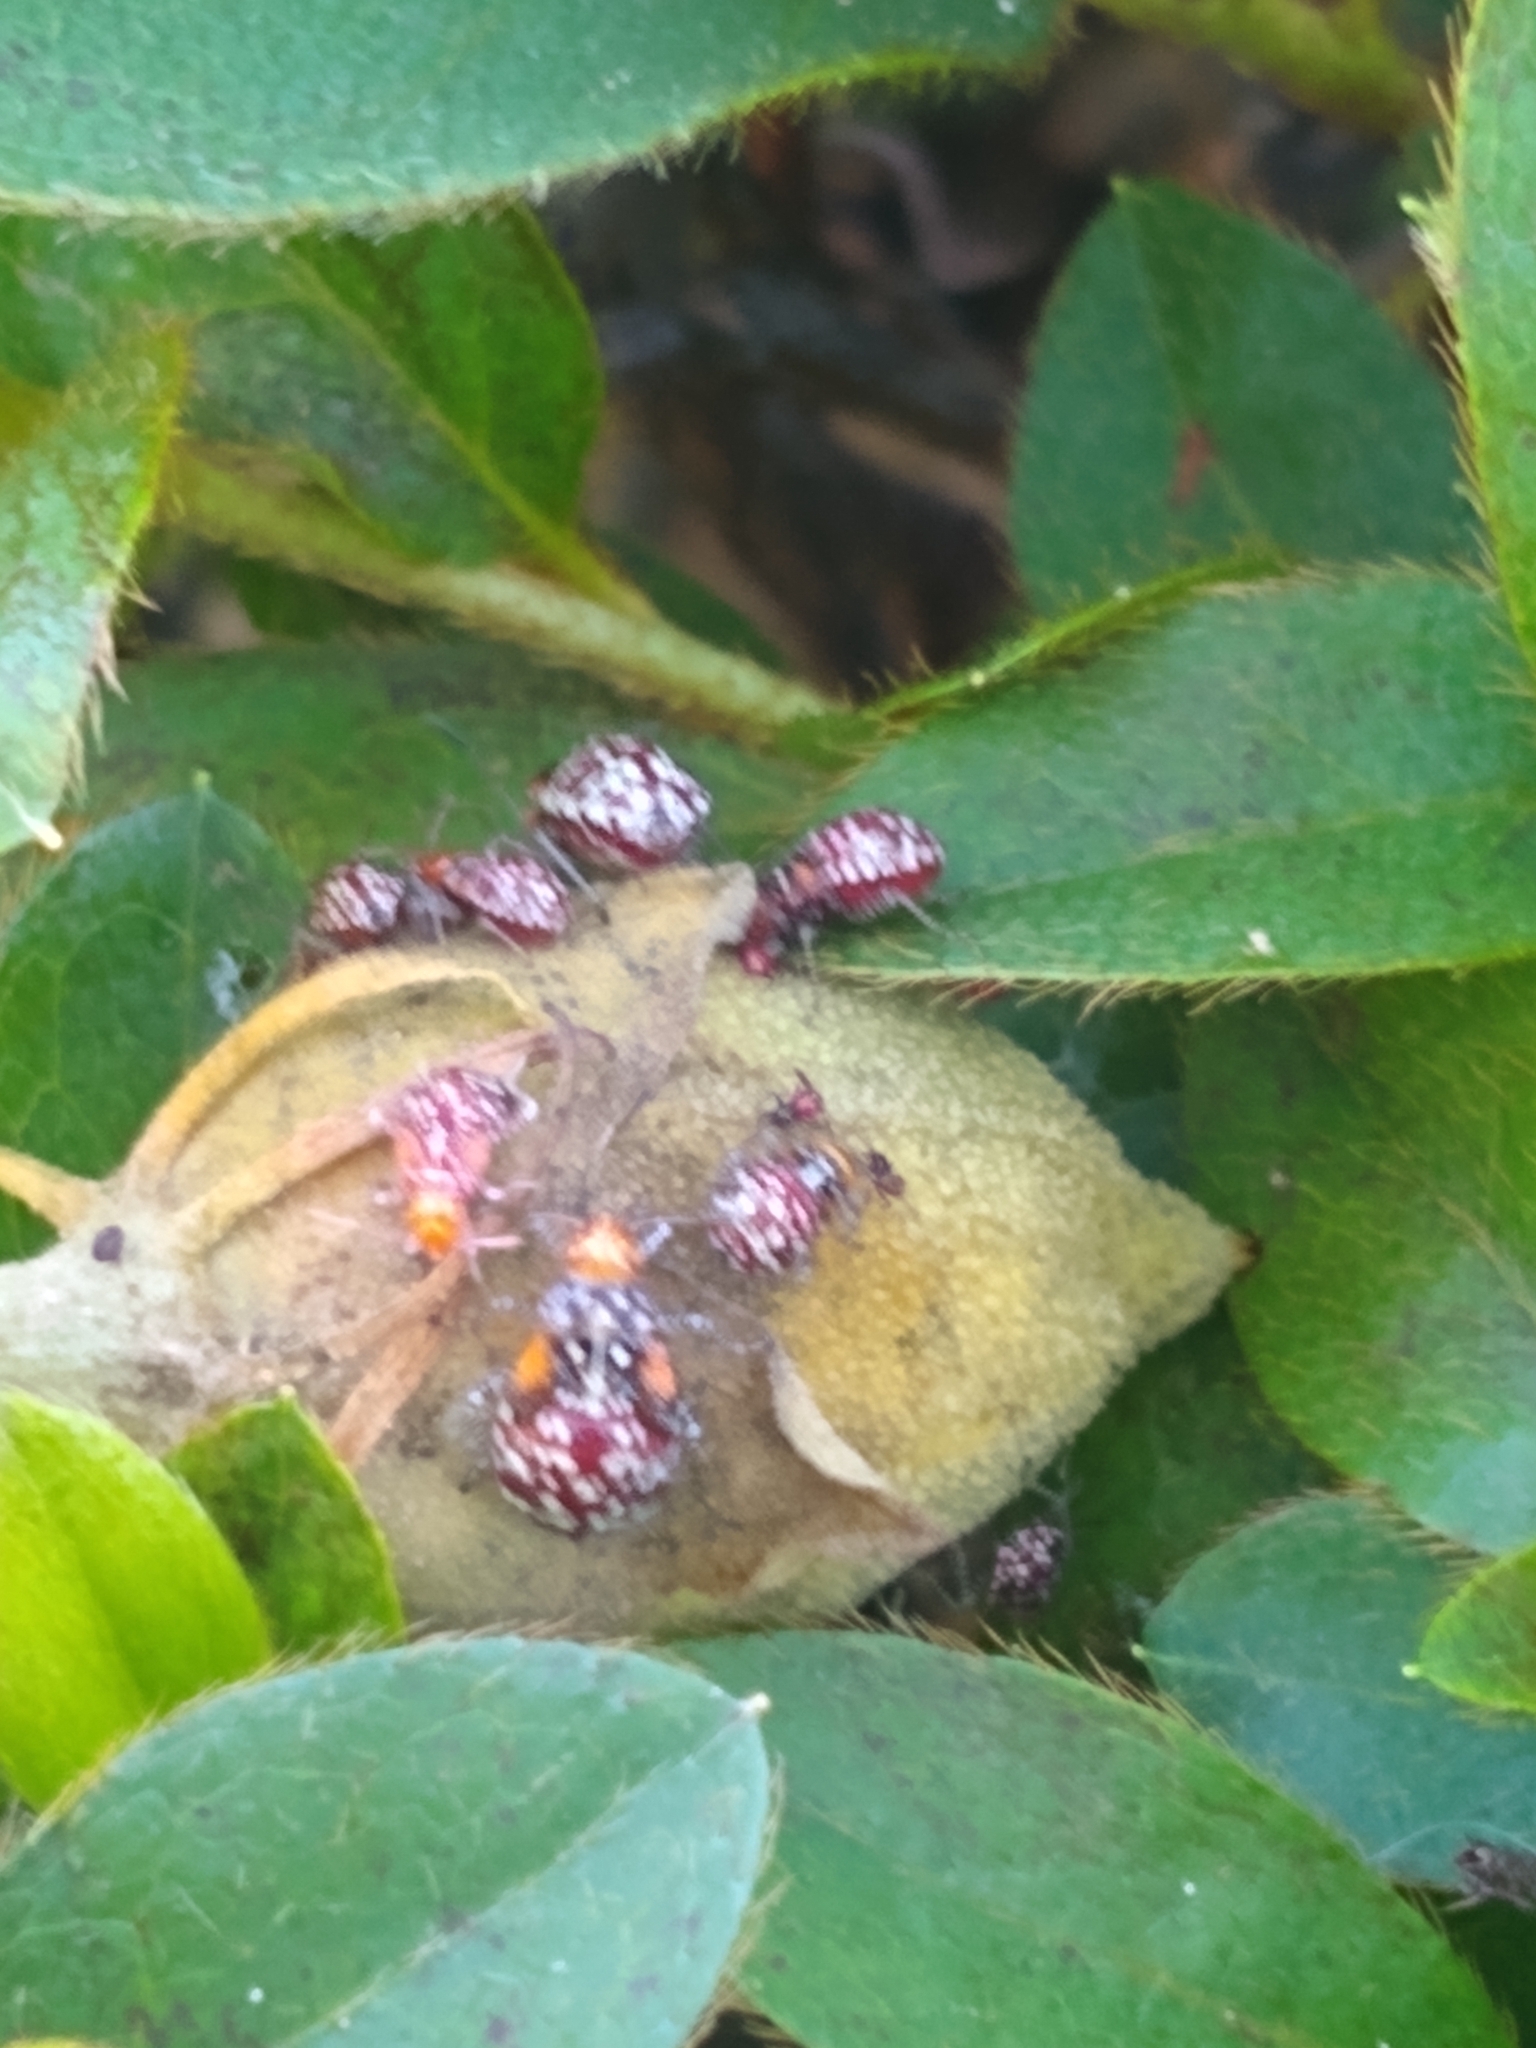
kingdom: Animalia
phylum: Arthropoda
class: Insecta
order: Hemiptera
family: Rhopalidae
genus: Niesthrea
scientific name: Niesthrea louisianica
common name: Scentless plant bug
